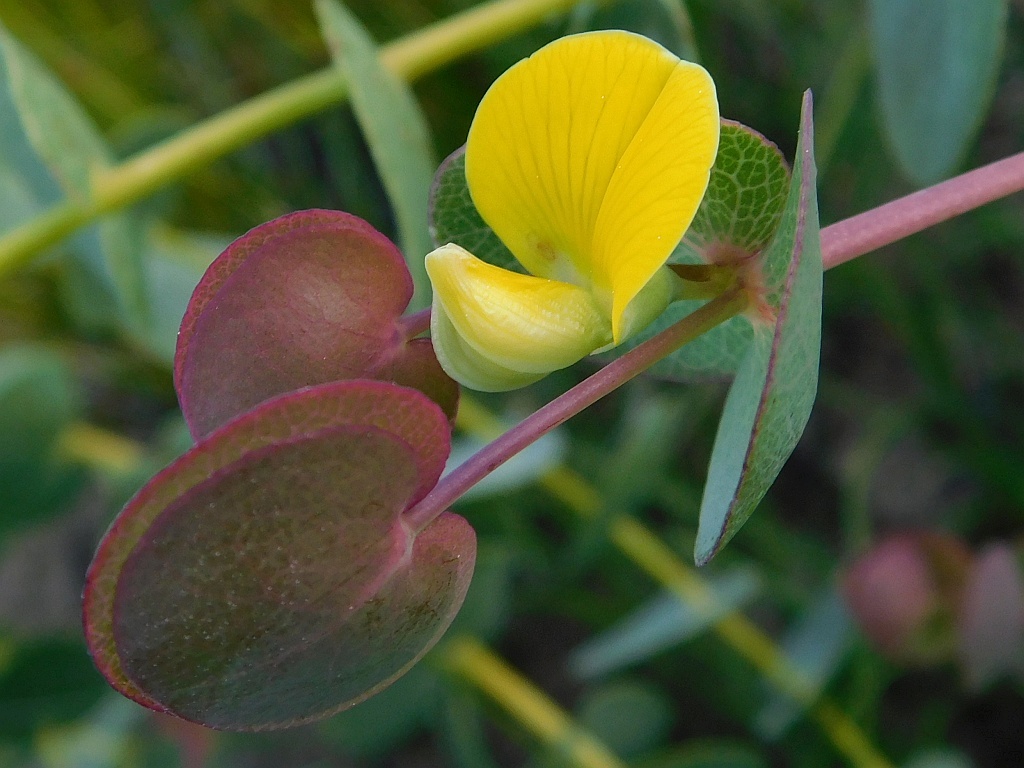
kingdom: Plantae
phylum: Tracheophyta
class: Magnoliopsida
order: Fabales
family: Fabaceae
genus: Rafnia
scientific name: Rafnia acuminata
